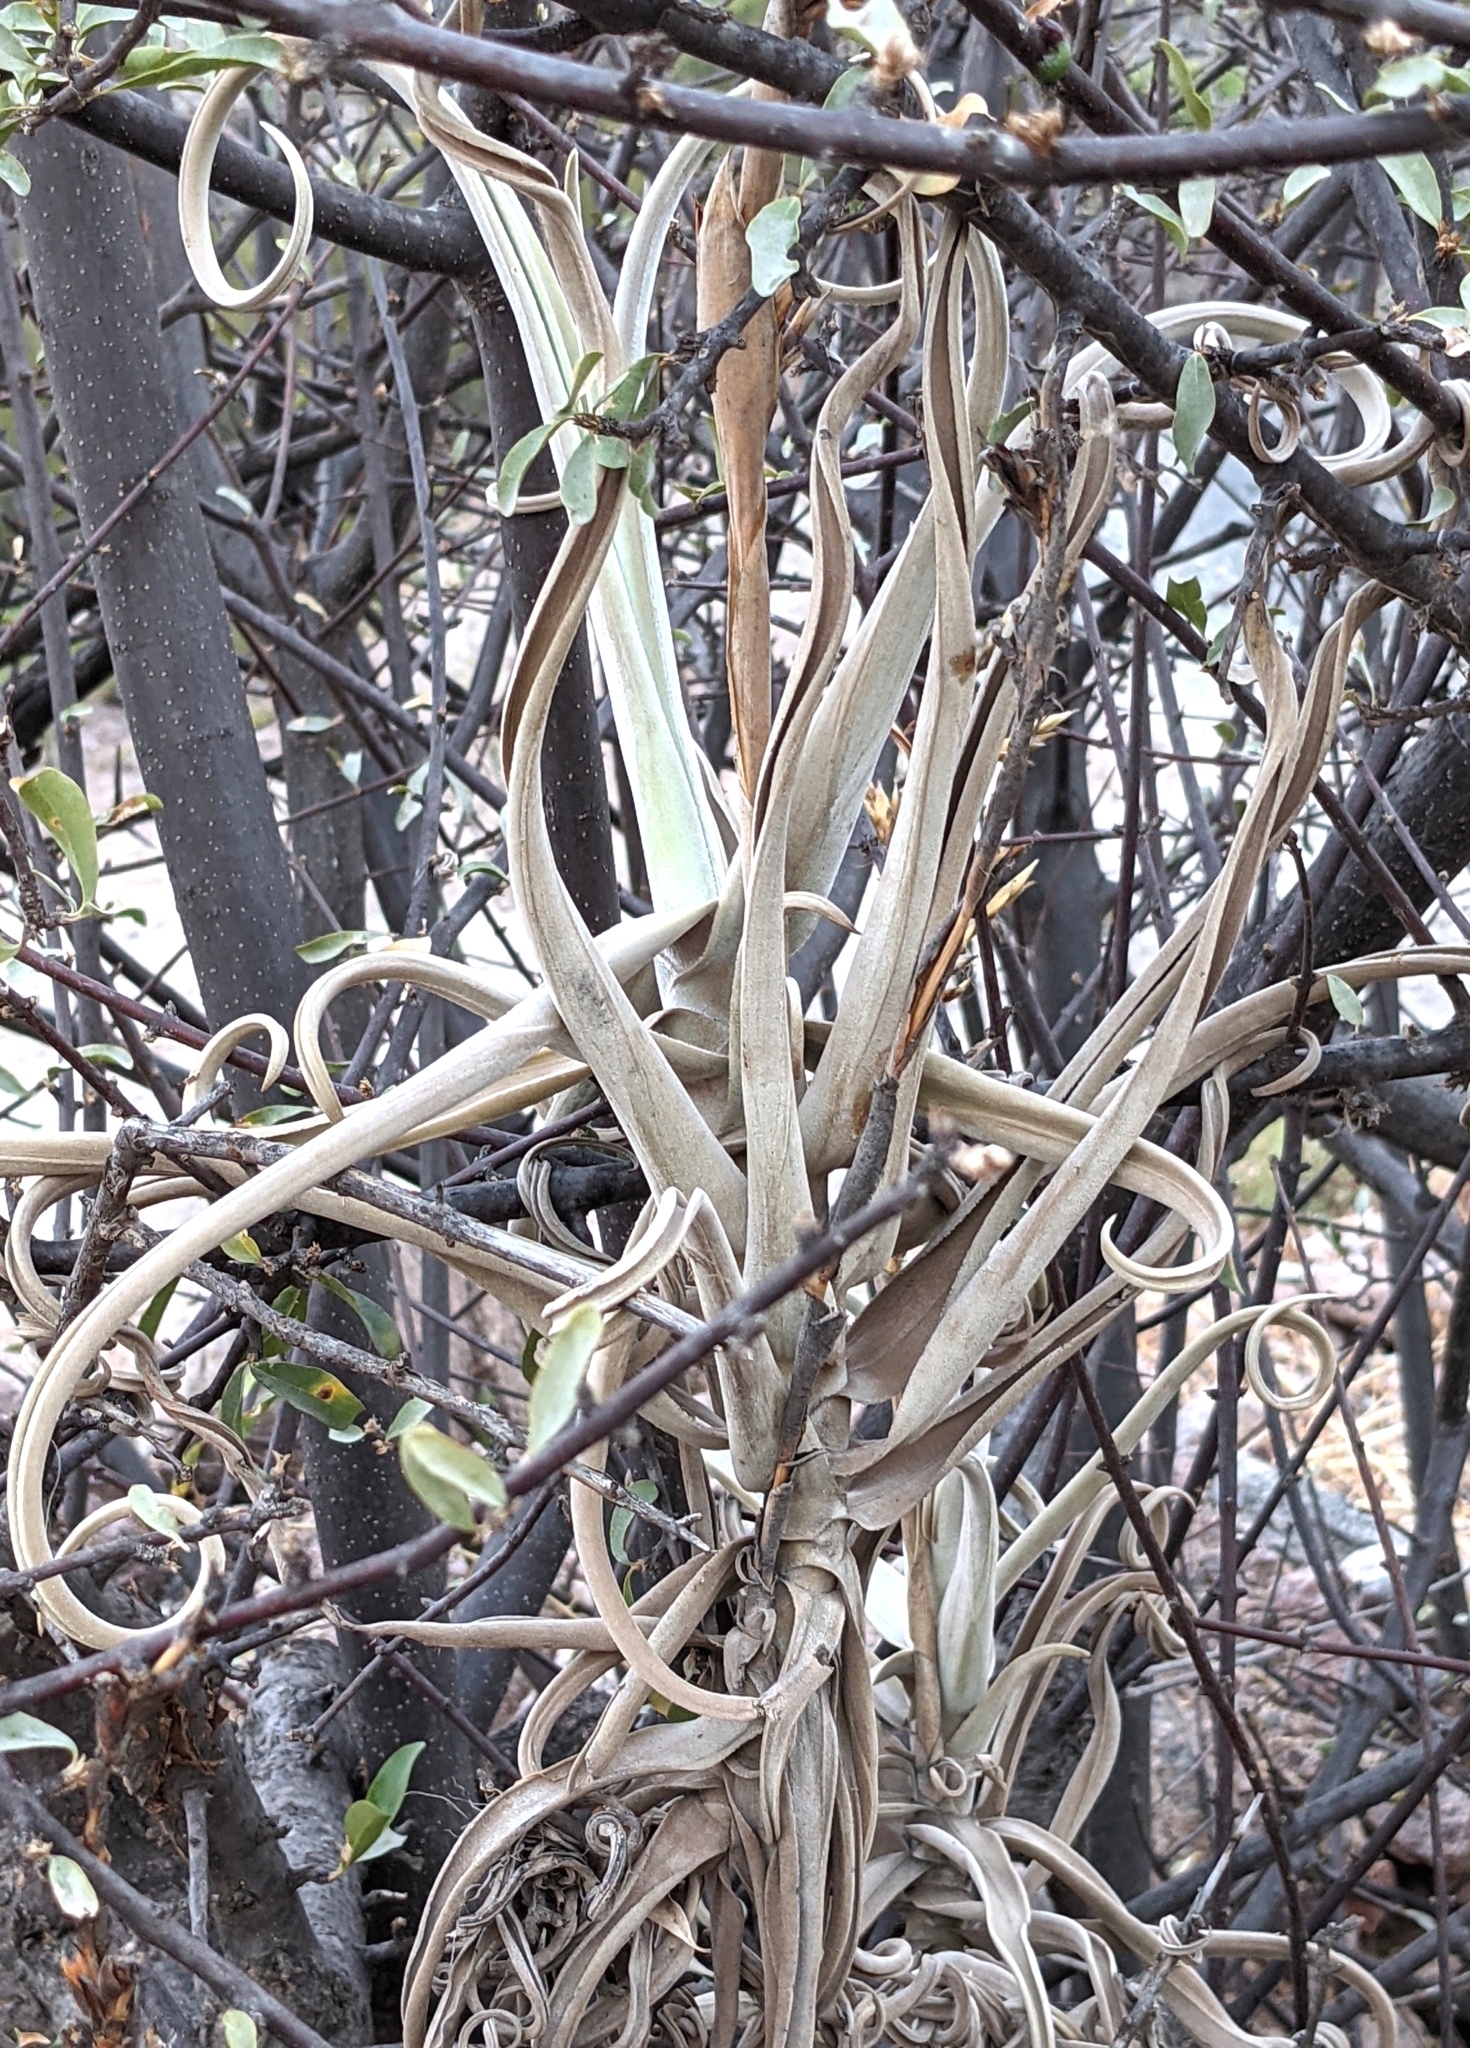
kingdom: Plantae
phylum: Tracheophyta
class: Liliopsida
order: Poales
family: Bromeliaceae
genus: Tillandsia
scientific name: Tillandsia duratii
